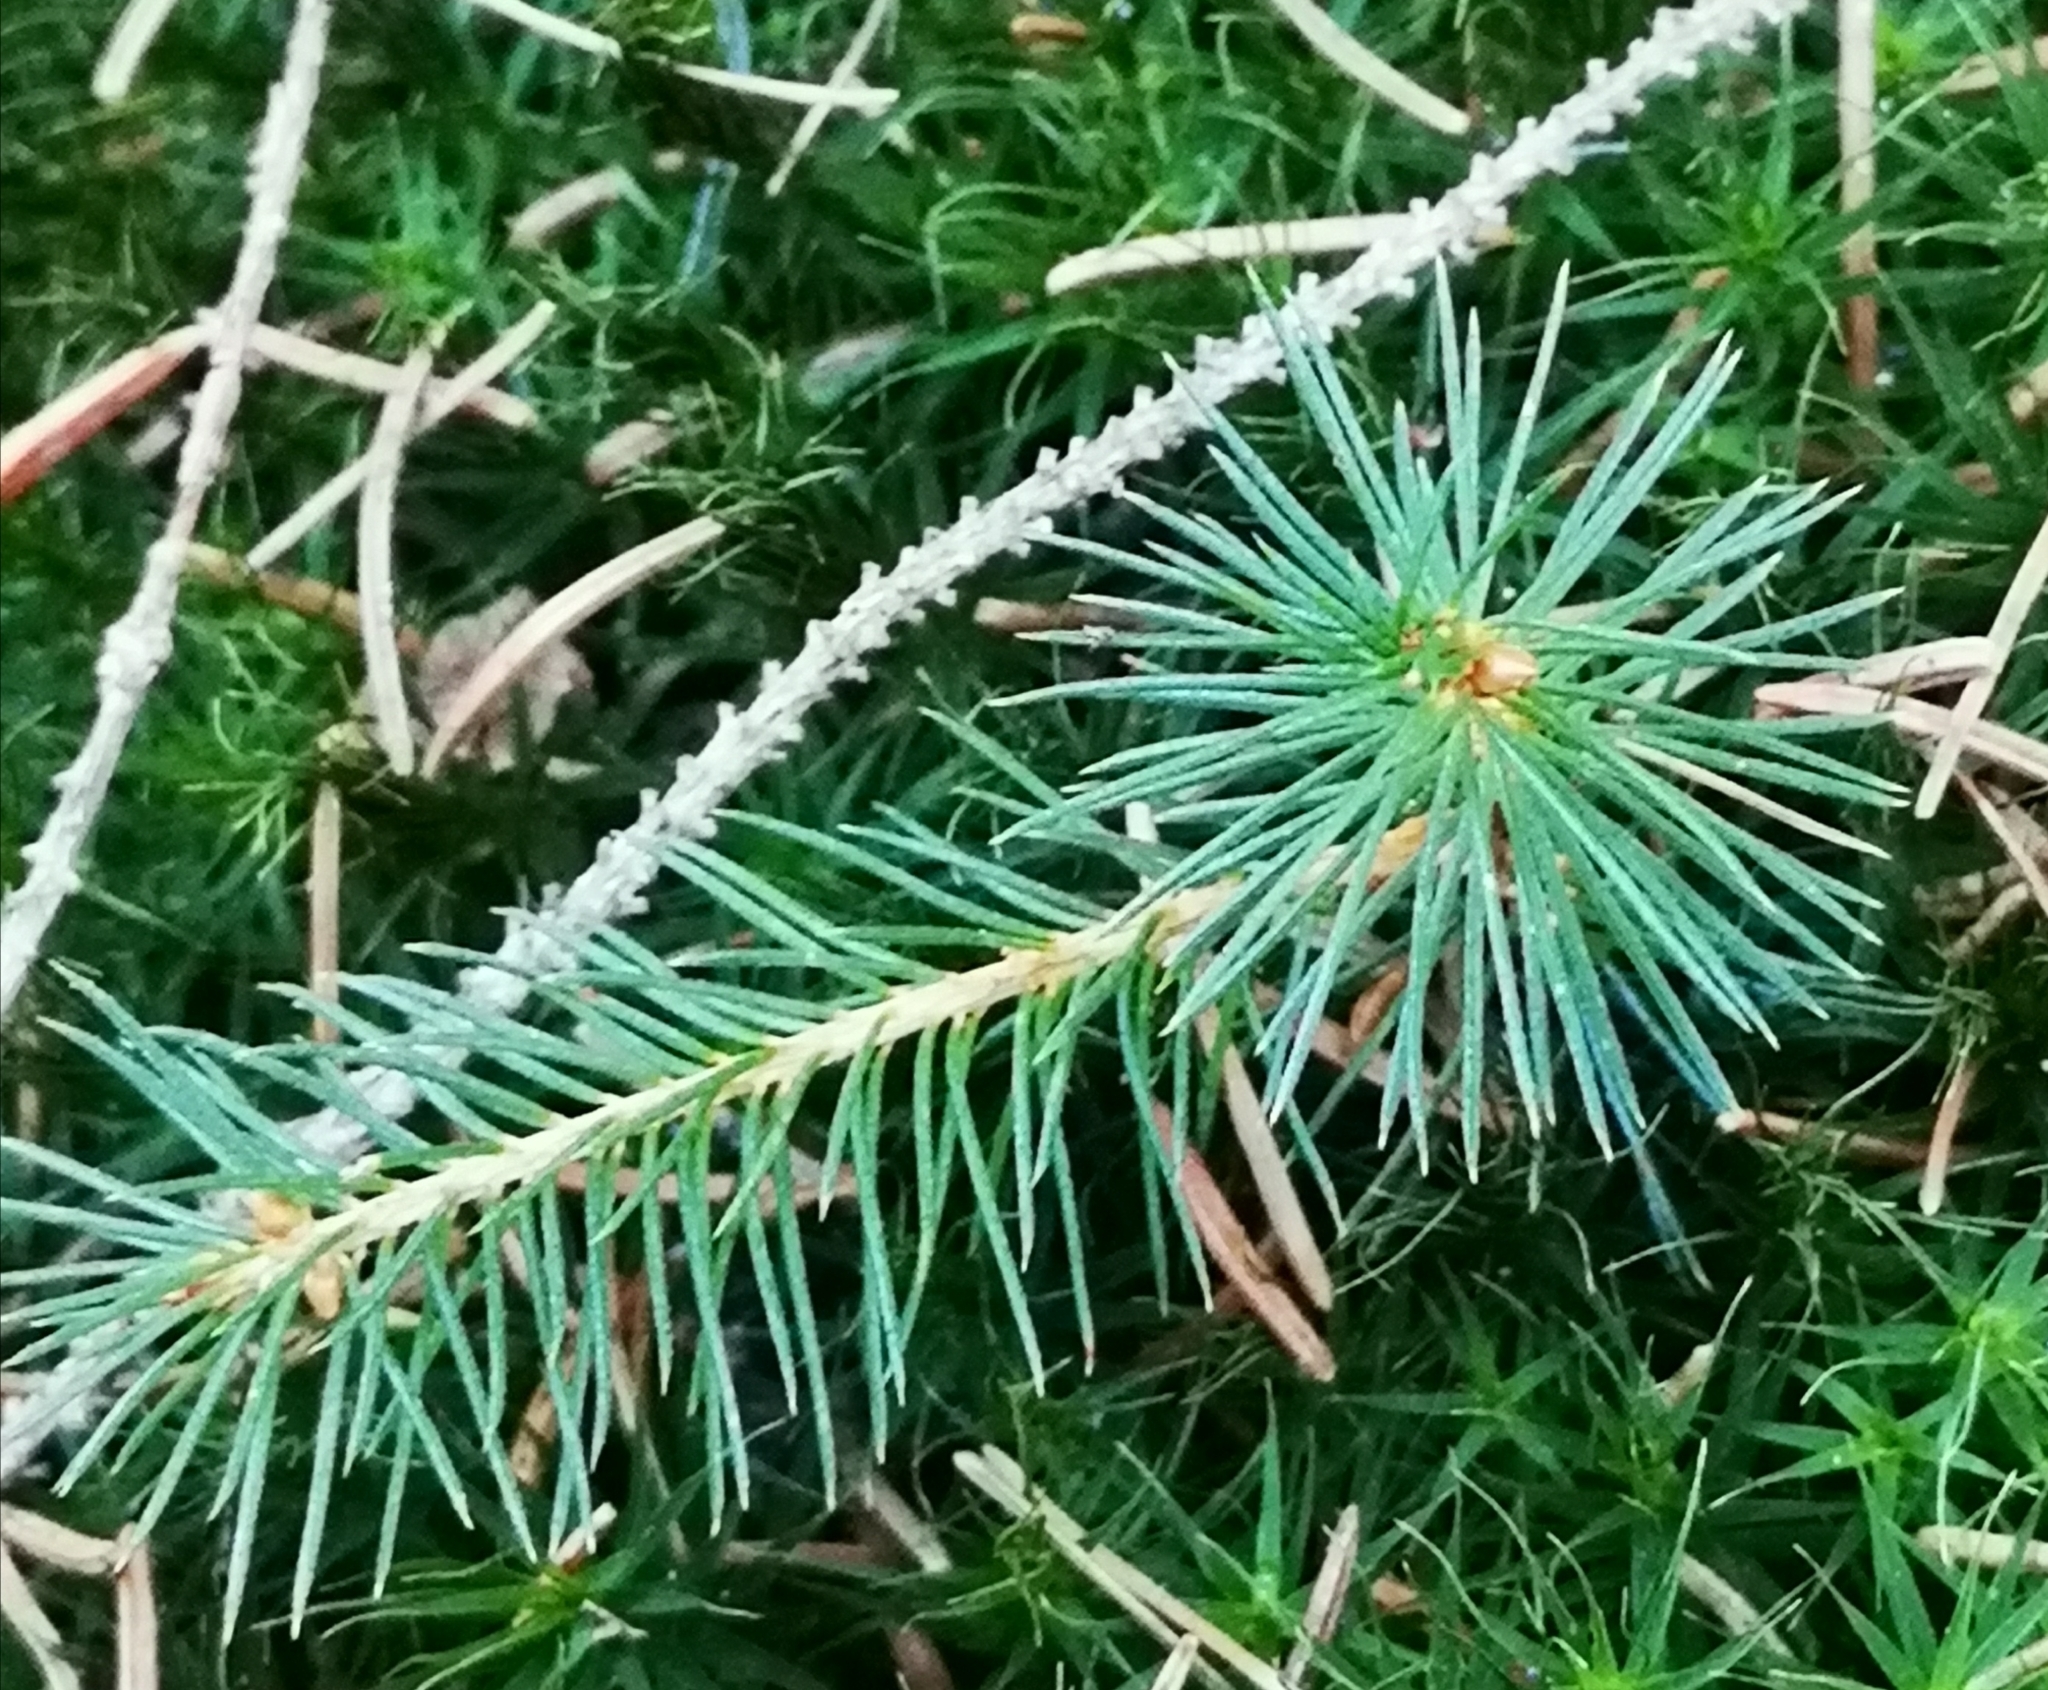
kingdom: Plantae
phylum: Tracheophyta
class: Pinopsida
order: Pinales
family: Pinaceae
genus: Picea
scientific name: Picea abies
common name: Norway spruce
